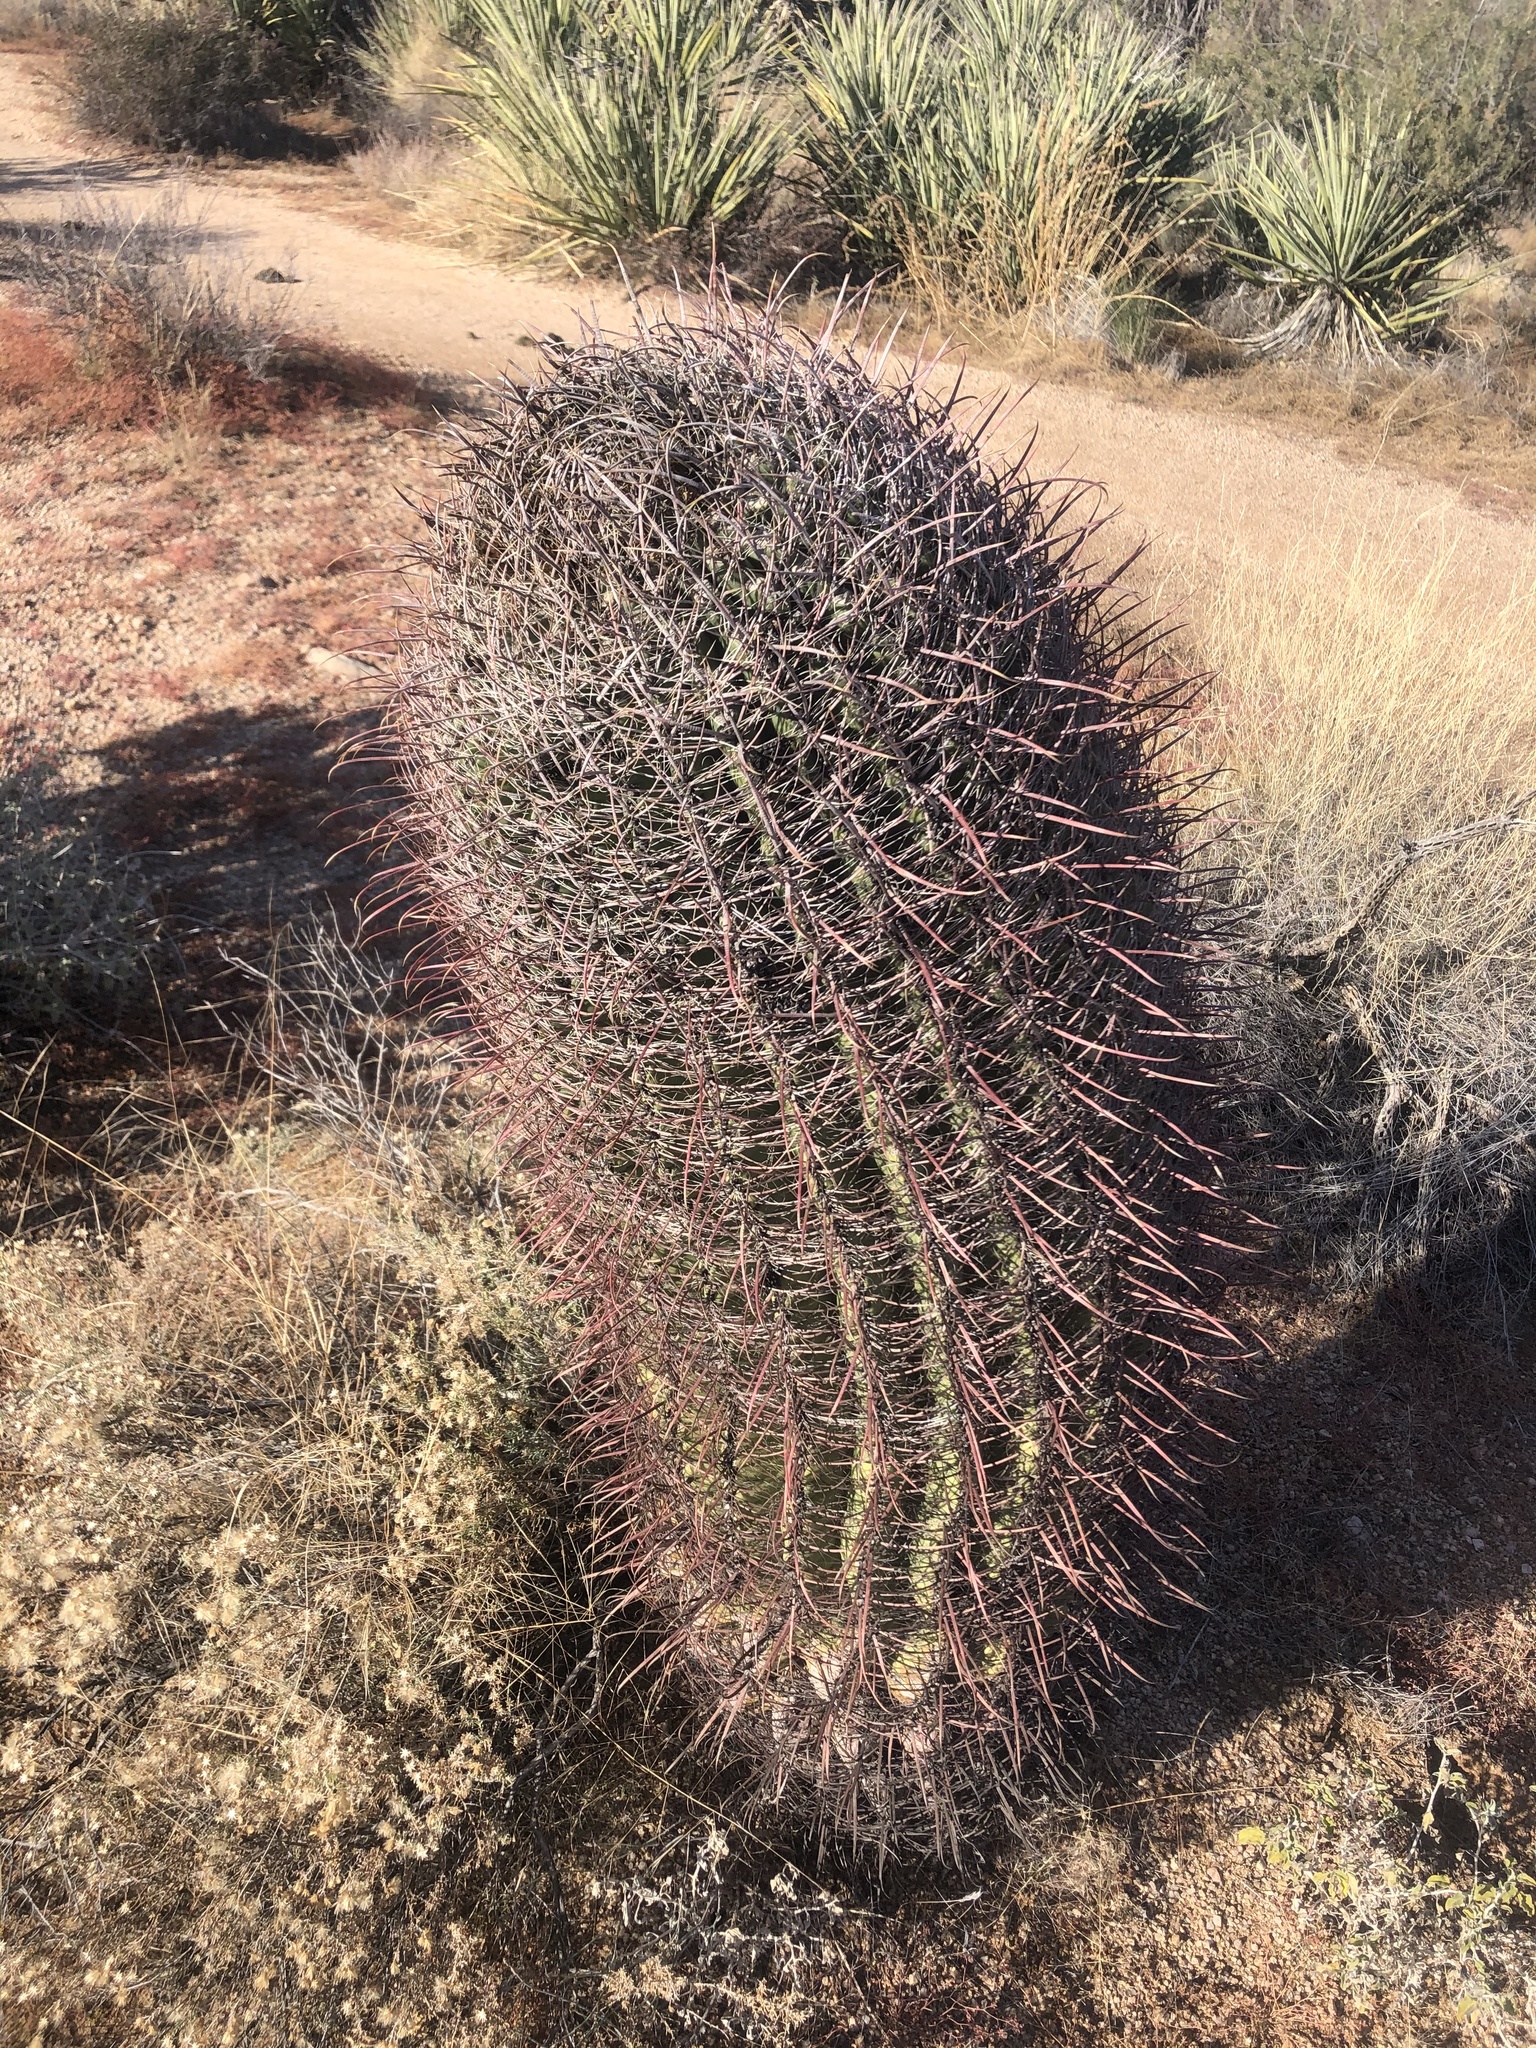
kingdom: Plantae
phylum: Tracheophyta
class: Magnoliopsida
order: Caryophyllales
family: Cactaceae
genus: Ferocactus
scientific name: Ferocactus cylindraceus
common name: California barrel cactus
